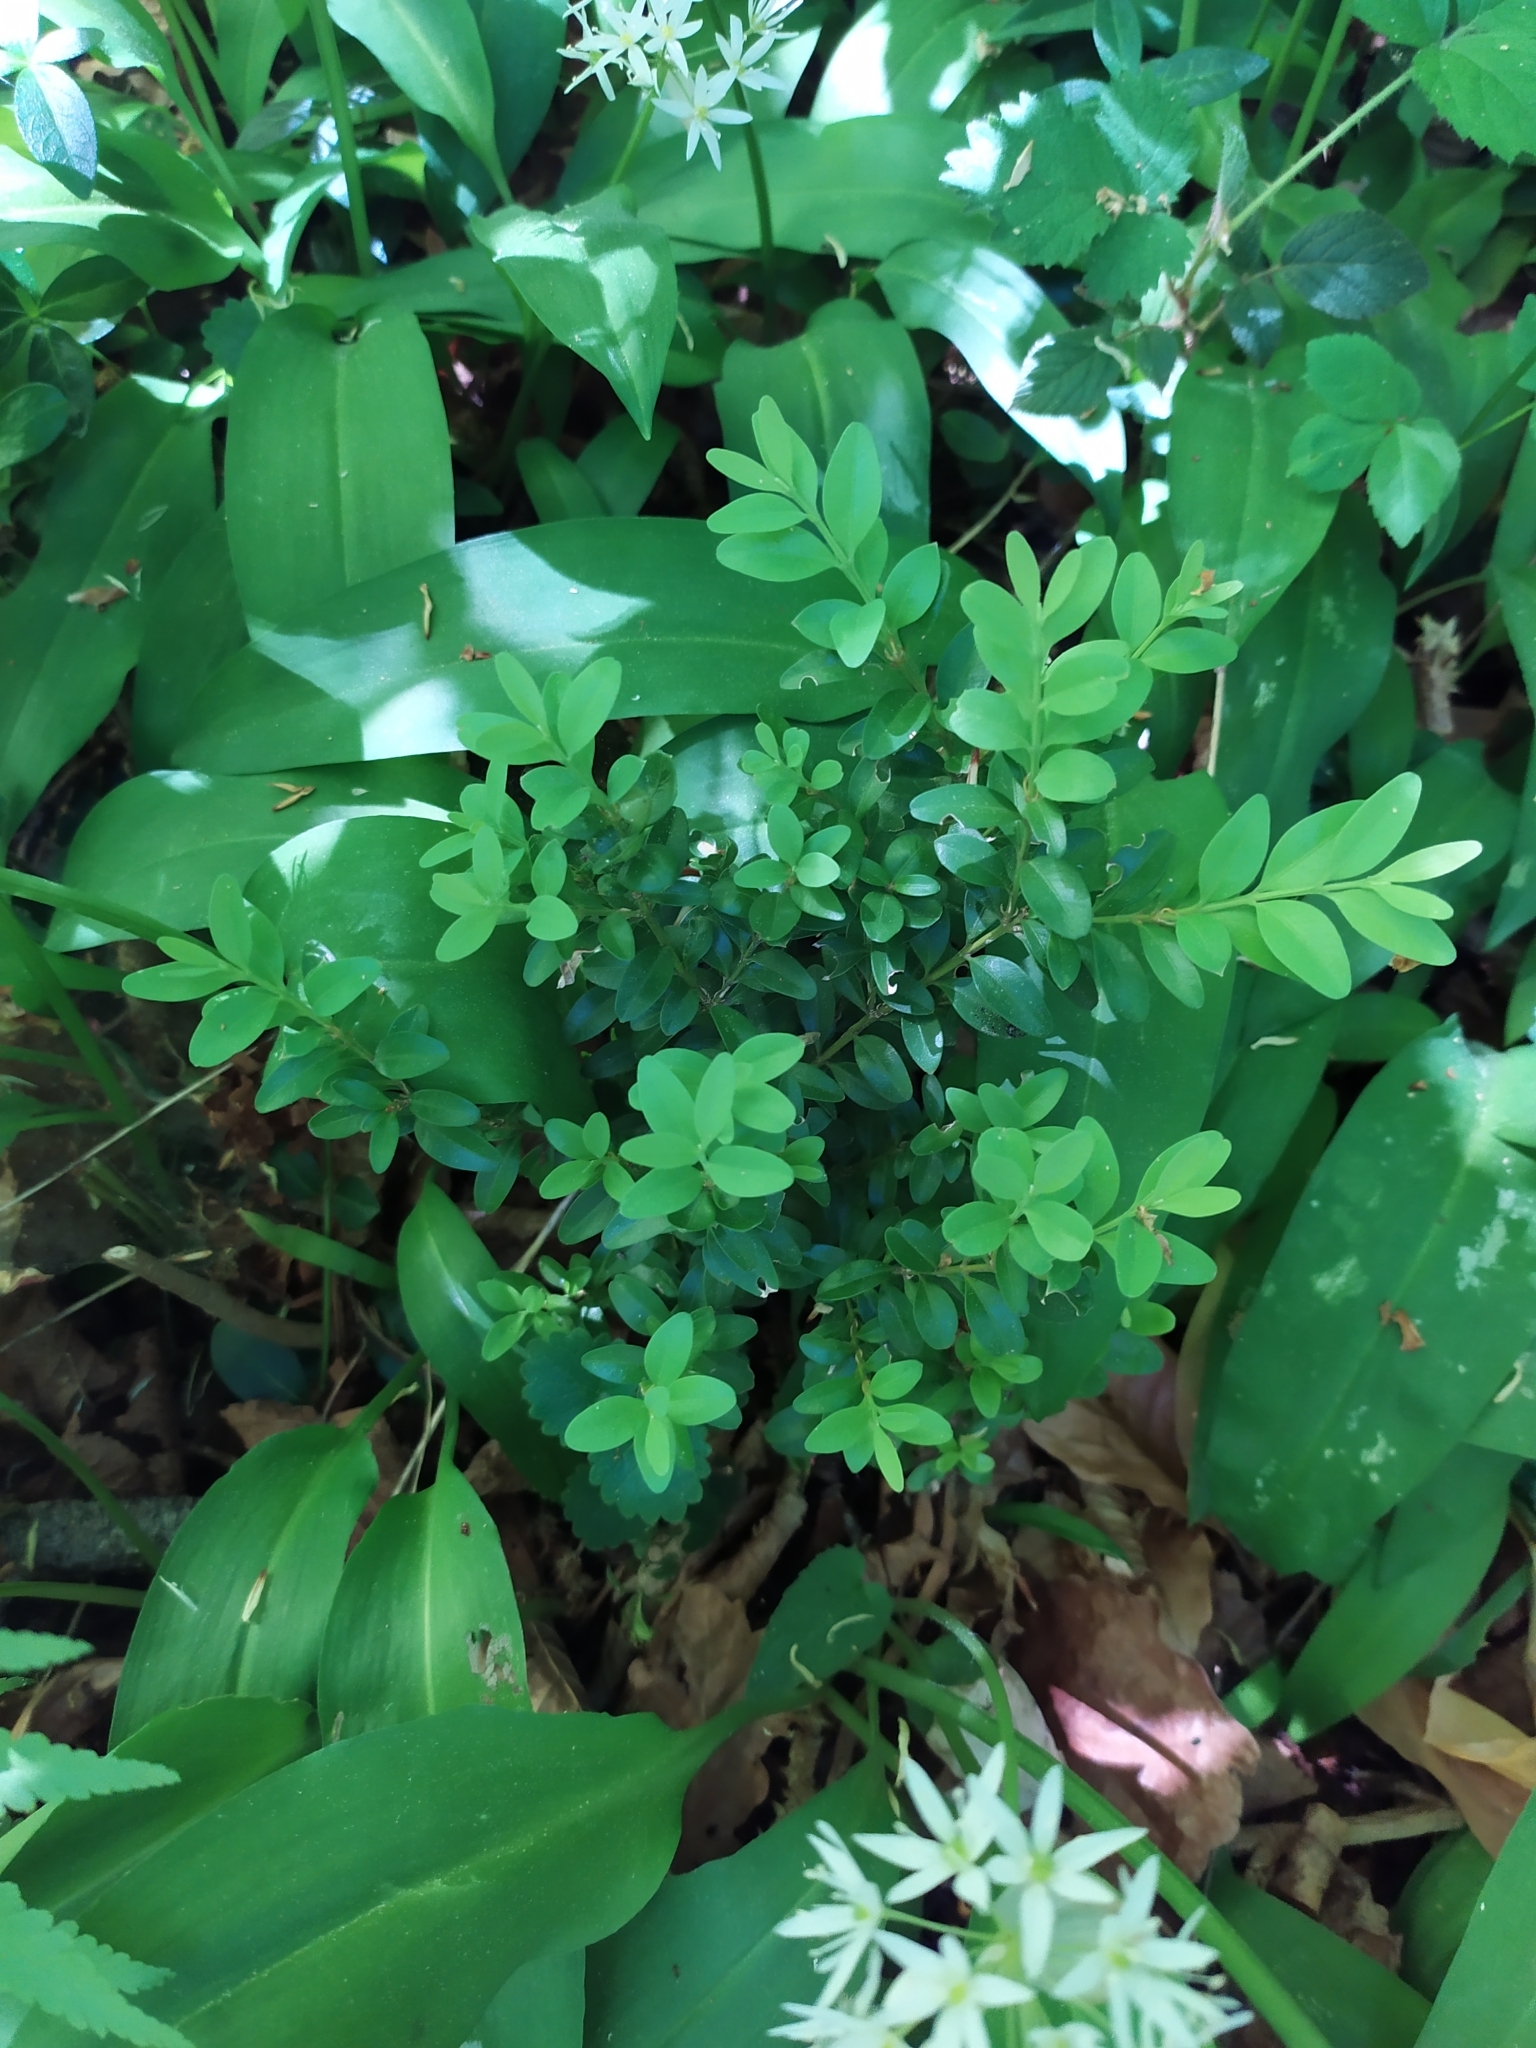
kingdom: Plantae
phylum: Tracheophyta
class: Magnoliopsida
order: Buxales
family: Buxaceae
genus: Buxus
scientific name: Buxus sempervirens
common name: Box
